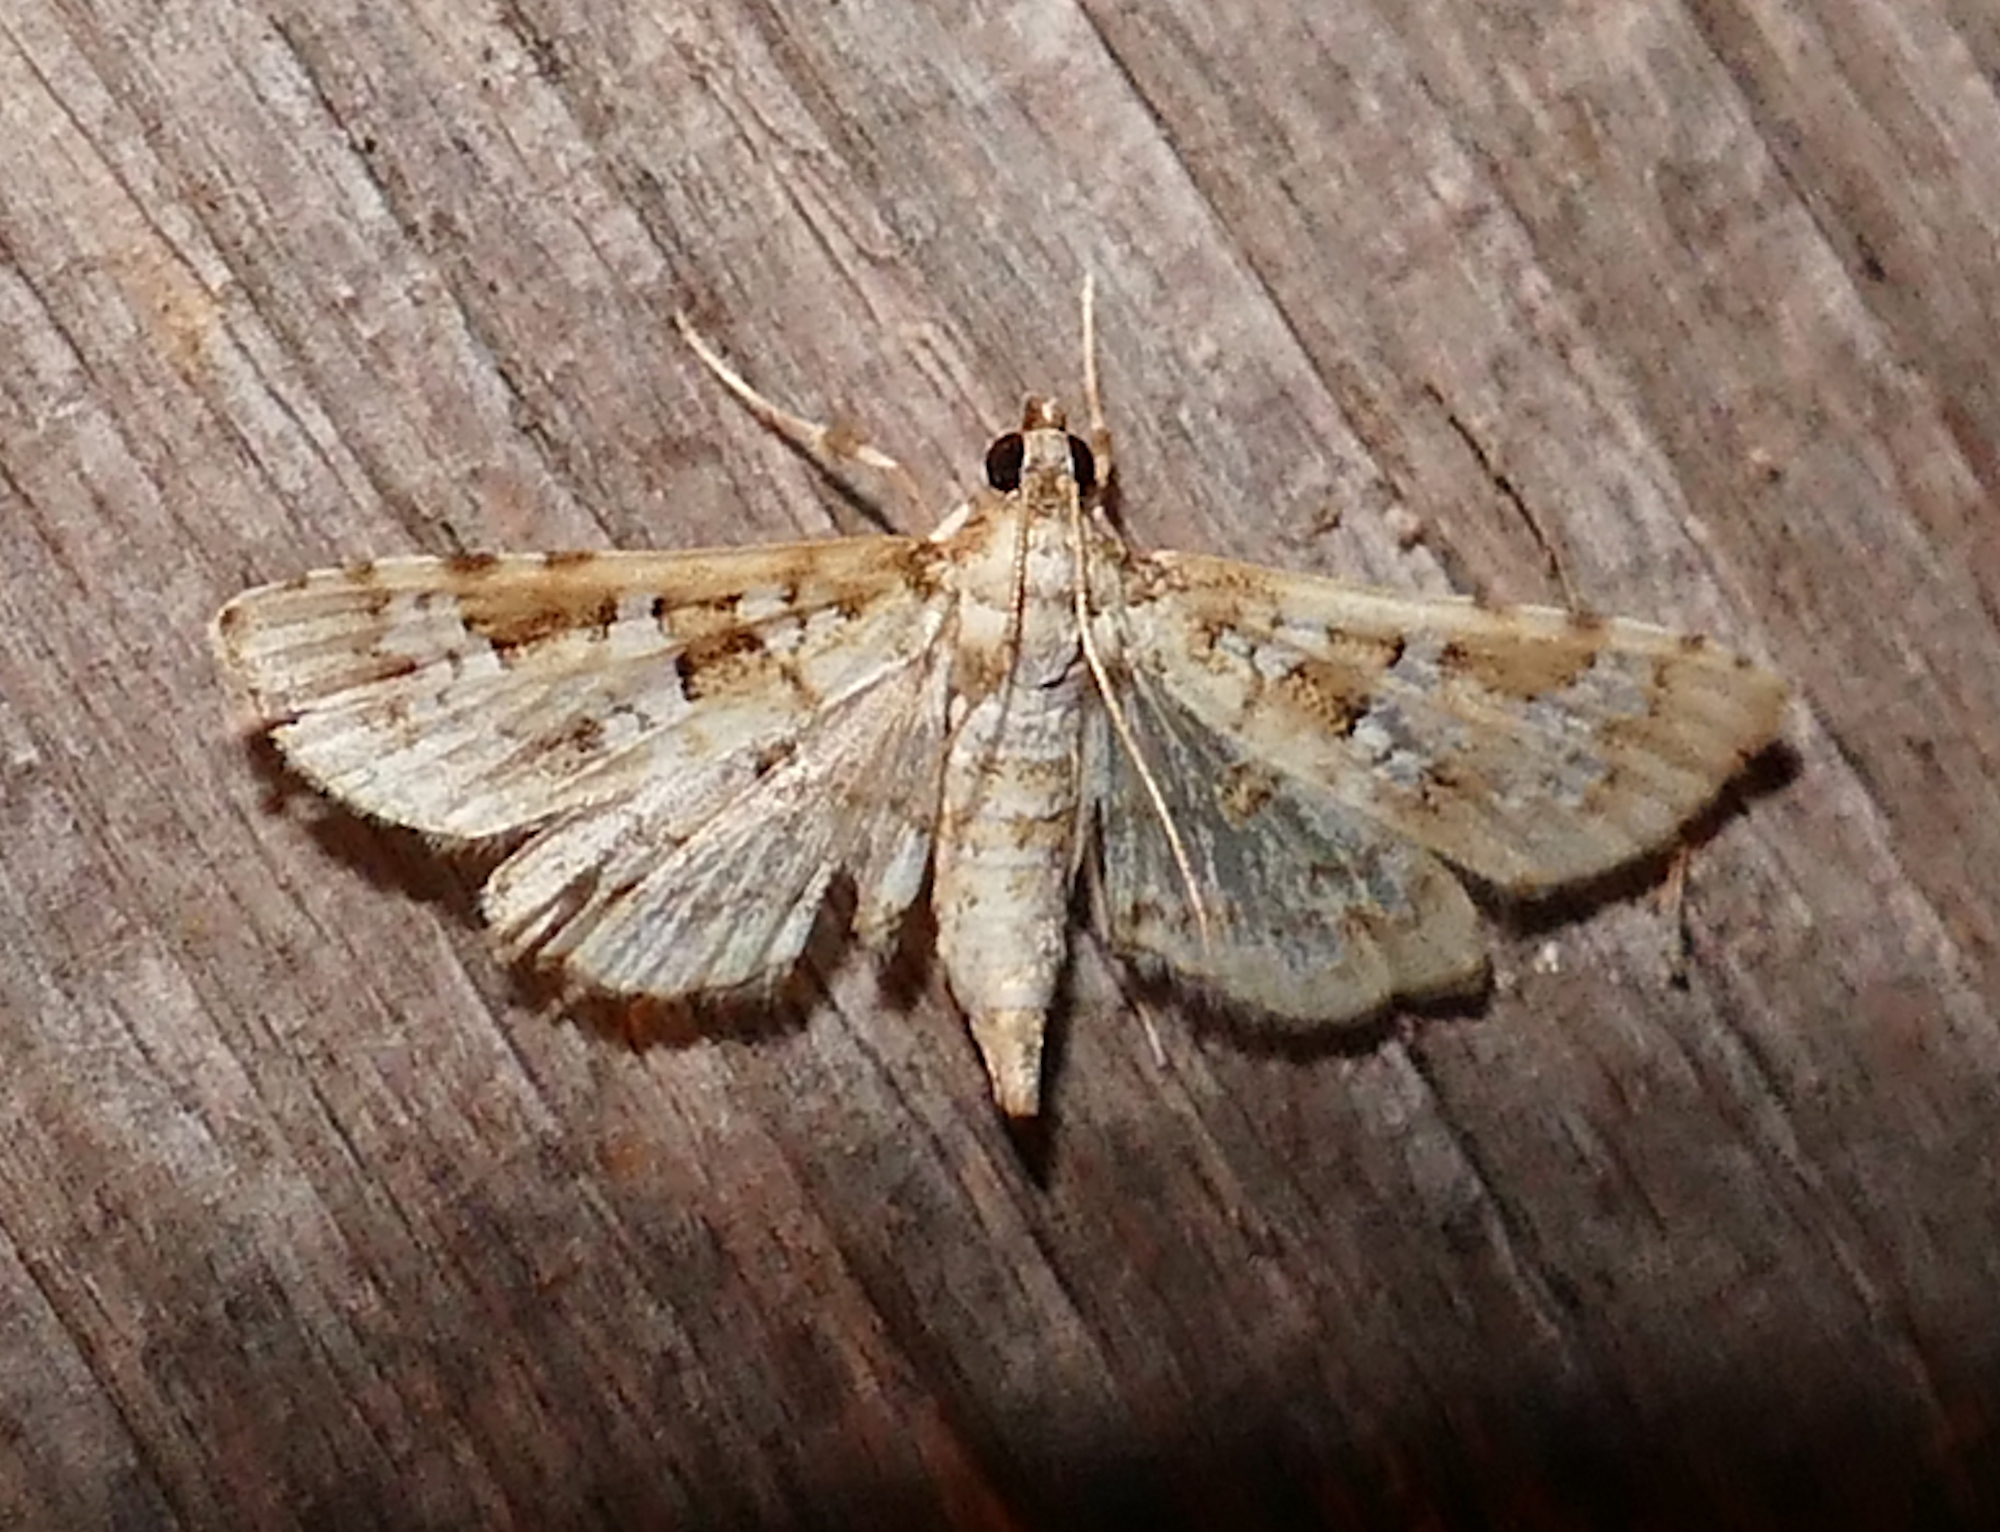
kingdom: Animalia
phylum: Arthropoda
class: Insecta
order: Lepidoptera
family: Crambidae
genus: Samea
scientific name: Samea multiplicalis
